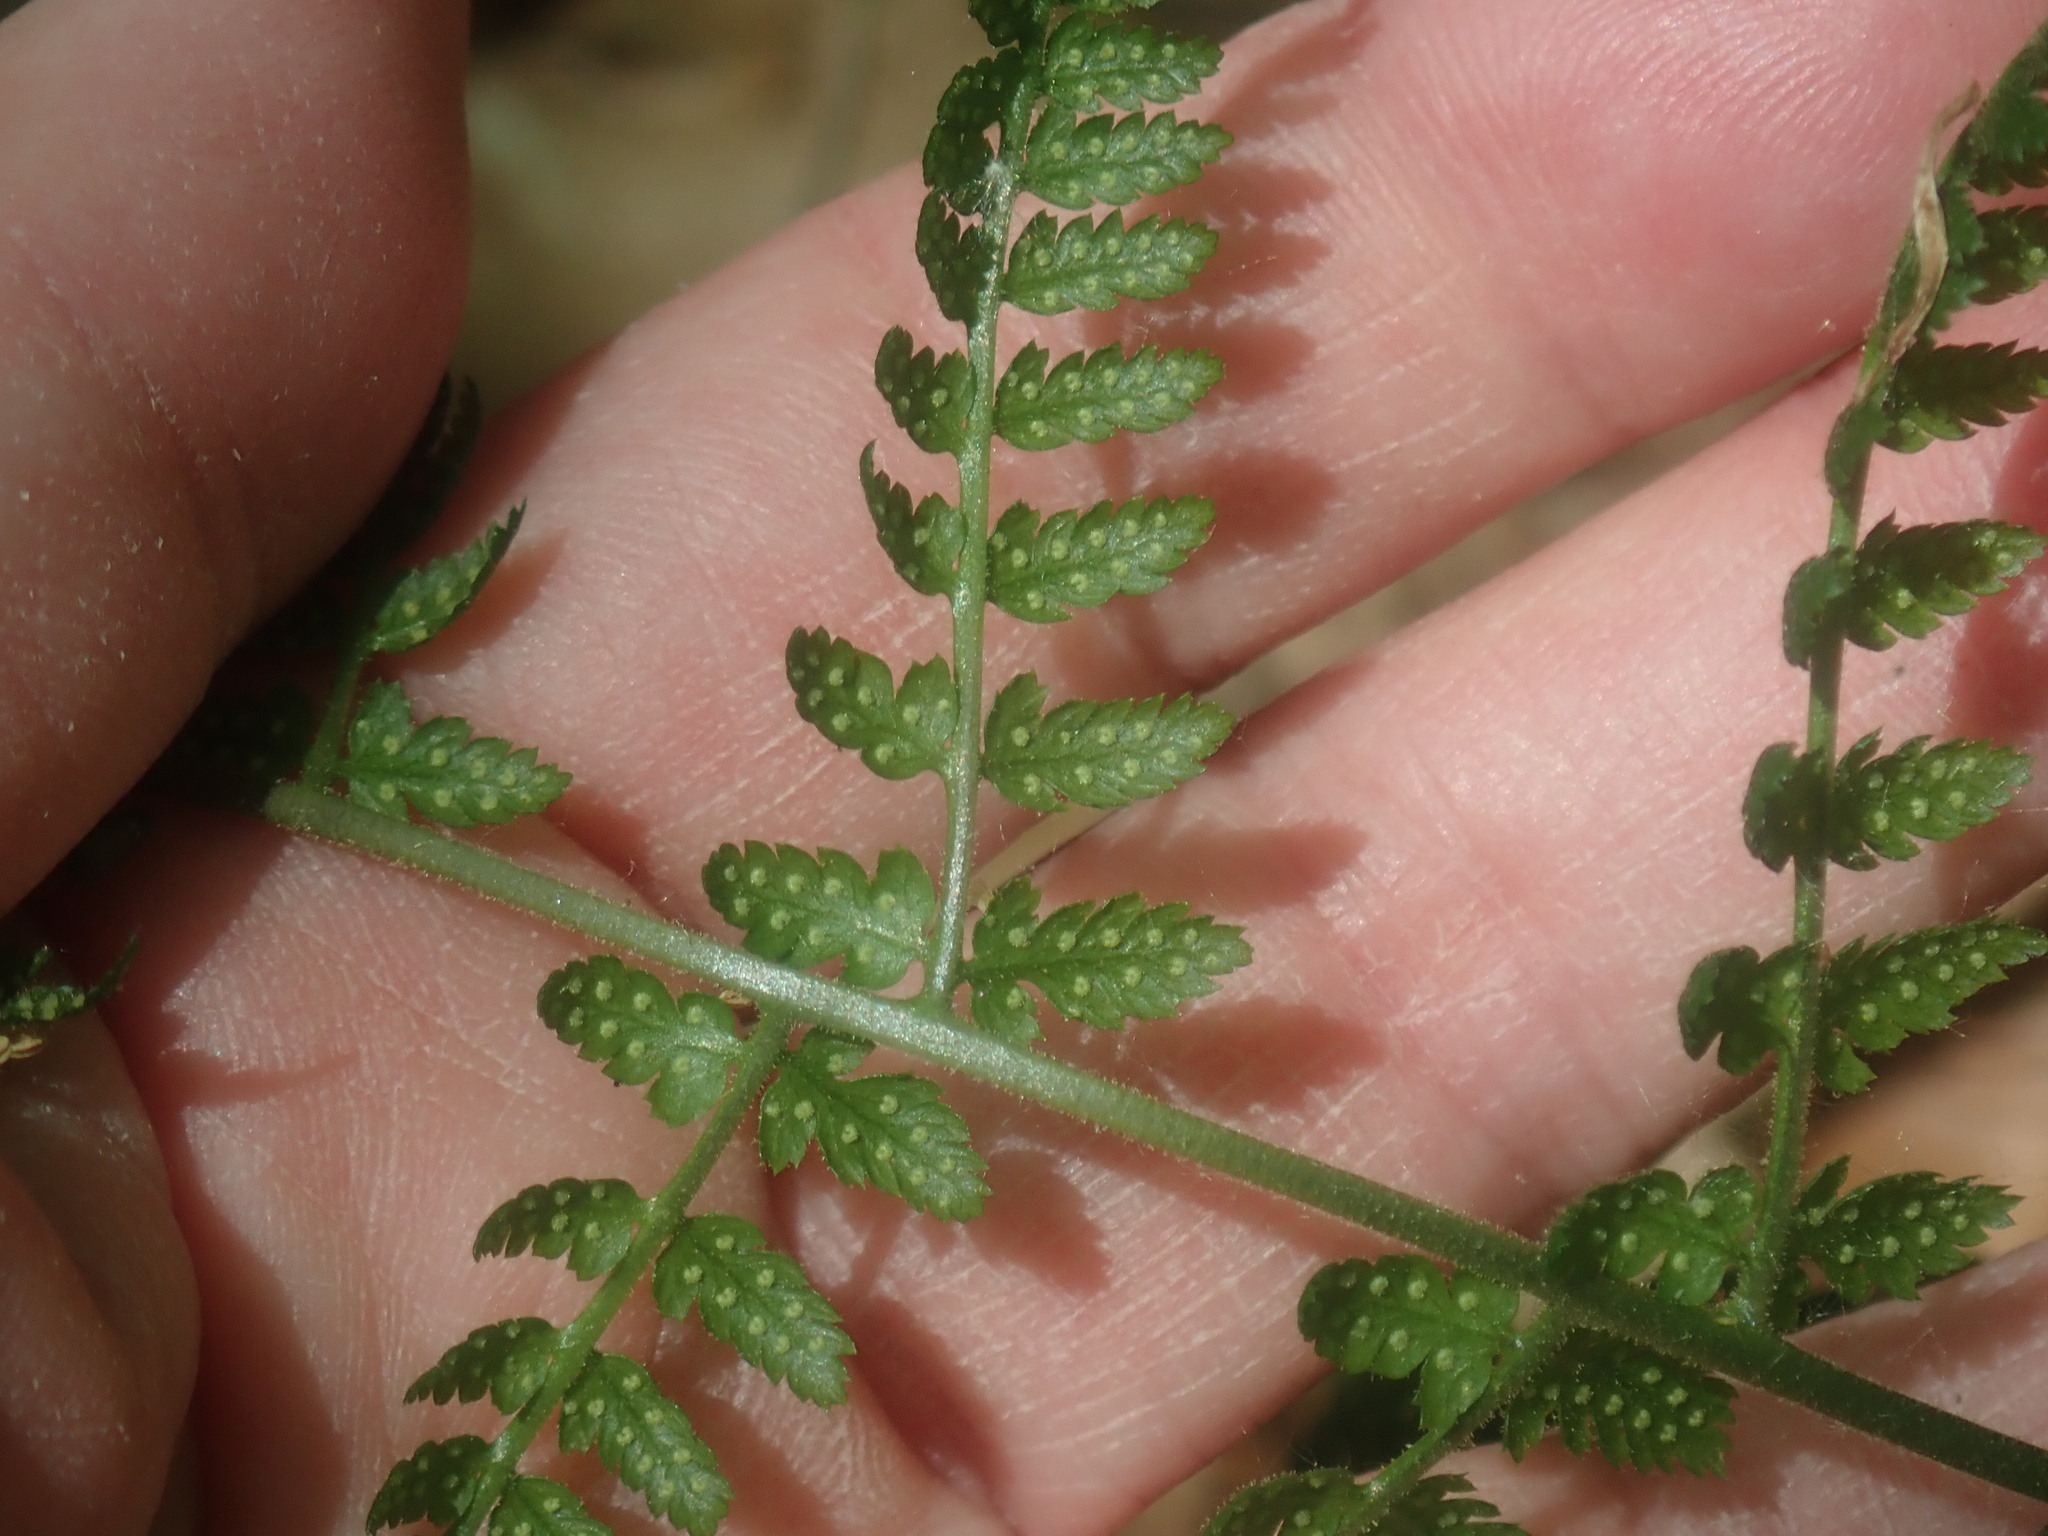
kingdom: Plantae
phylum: Tracheophyta
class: Polypodiopsida
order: Polypodiales
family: Dryopteridaceae
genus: Dryopteris
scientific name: Dryopteris intermedia
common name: Evergreen wood fern
